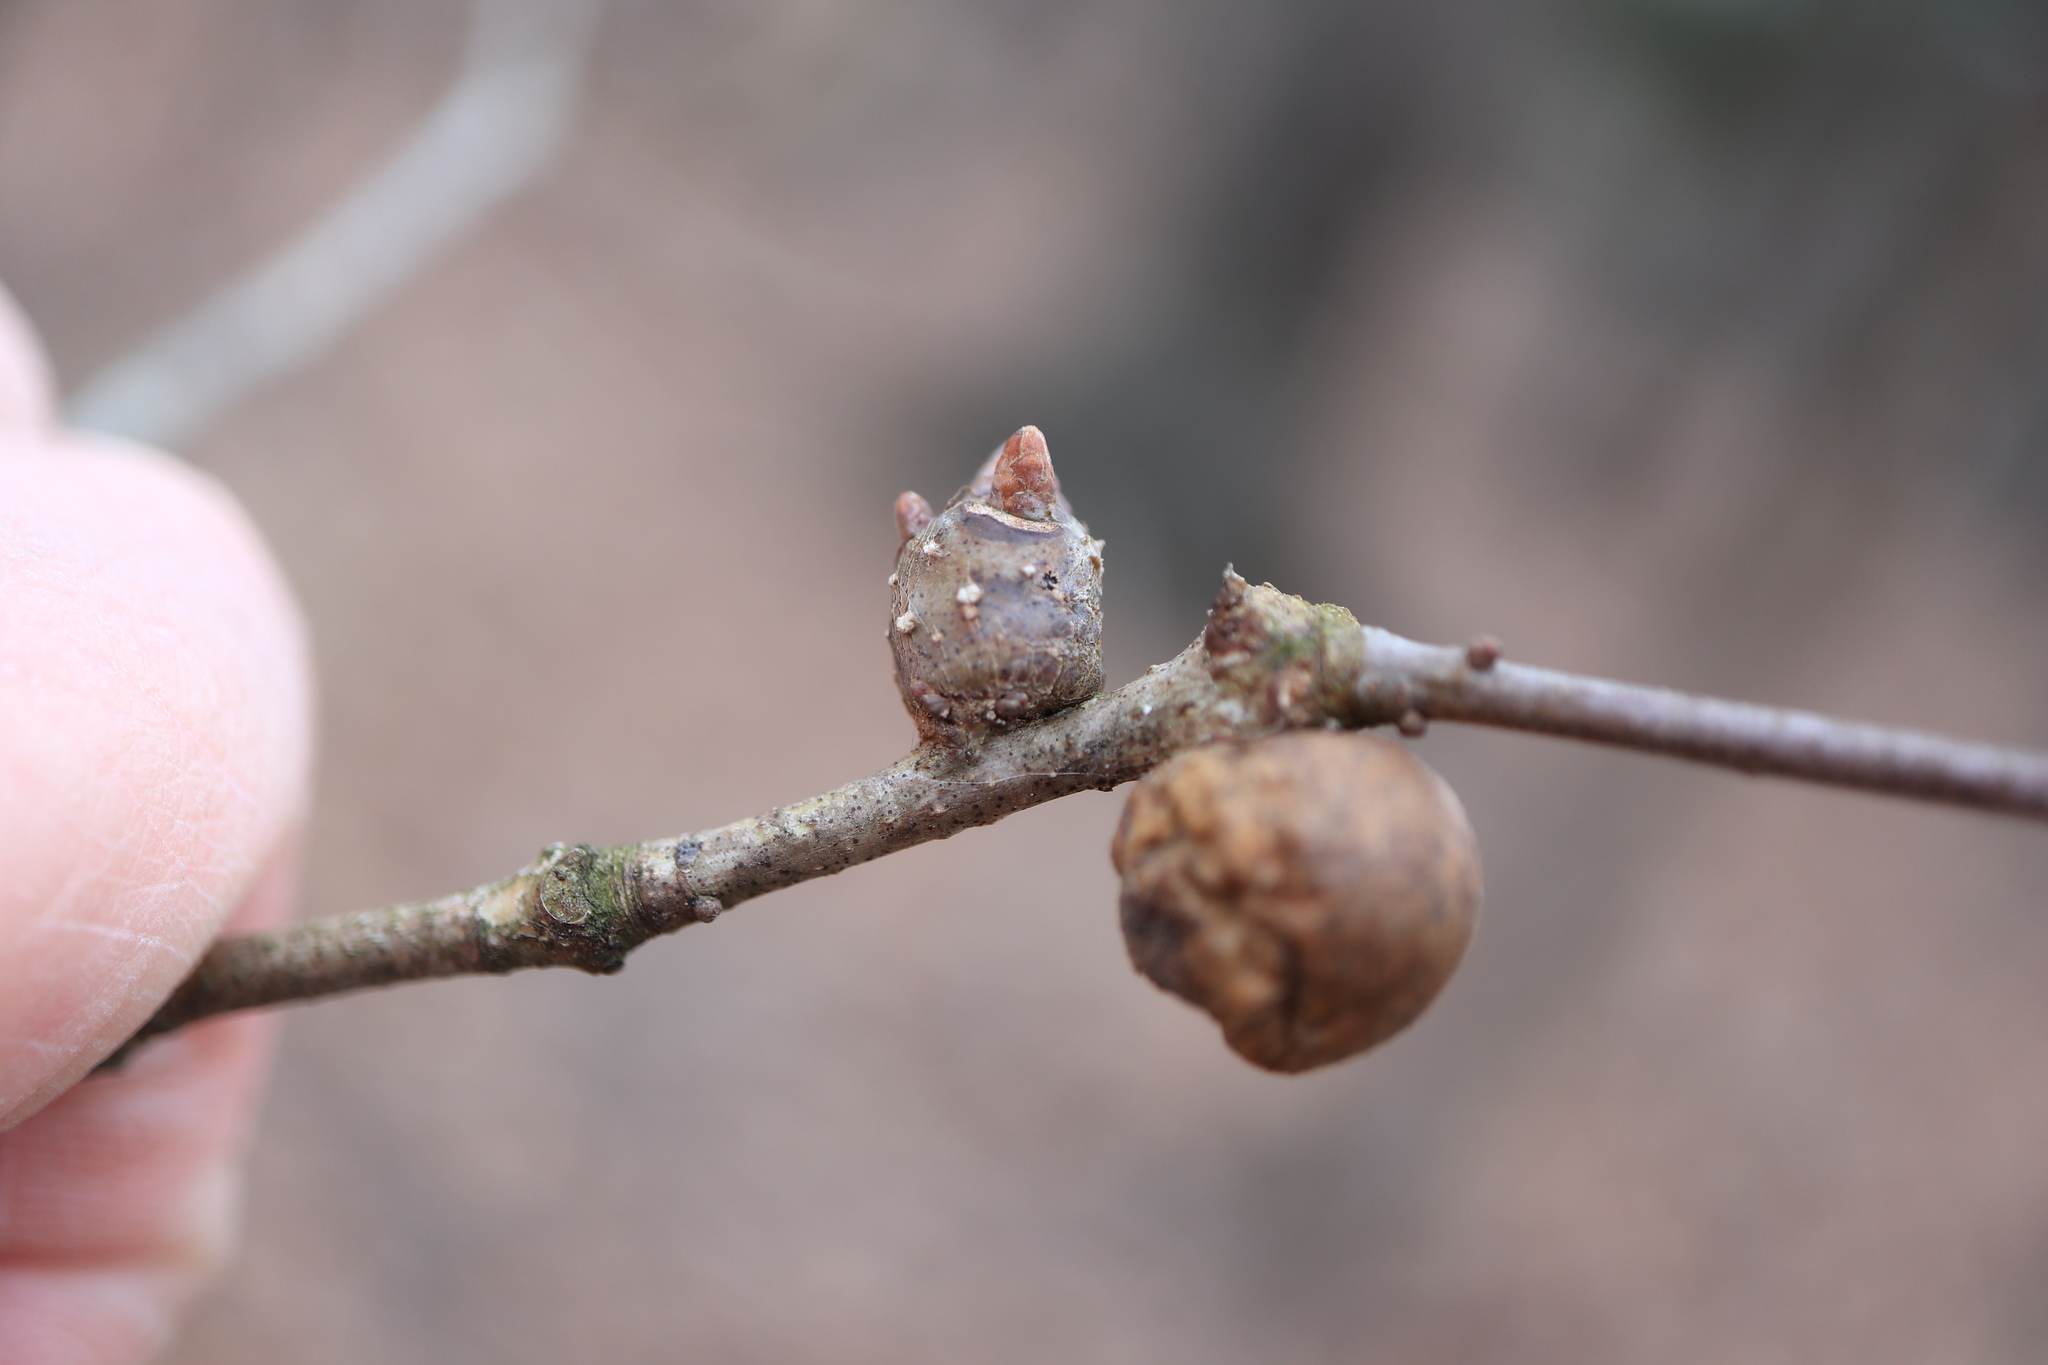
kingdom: Animalia
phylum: Arthropoda
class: Insecta
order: Hymenoptera
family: Cynipidae
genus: Neuroterus
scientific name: Neuroterus quercusbaccarum
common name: Common spangle gall
